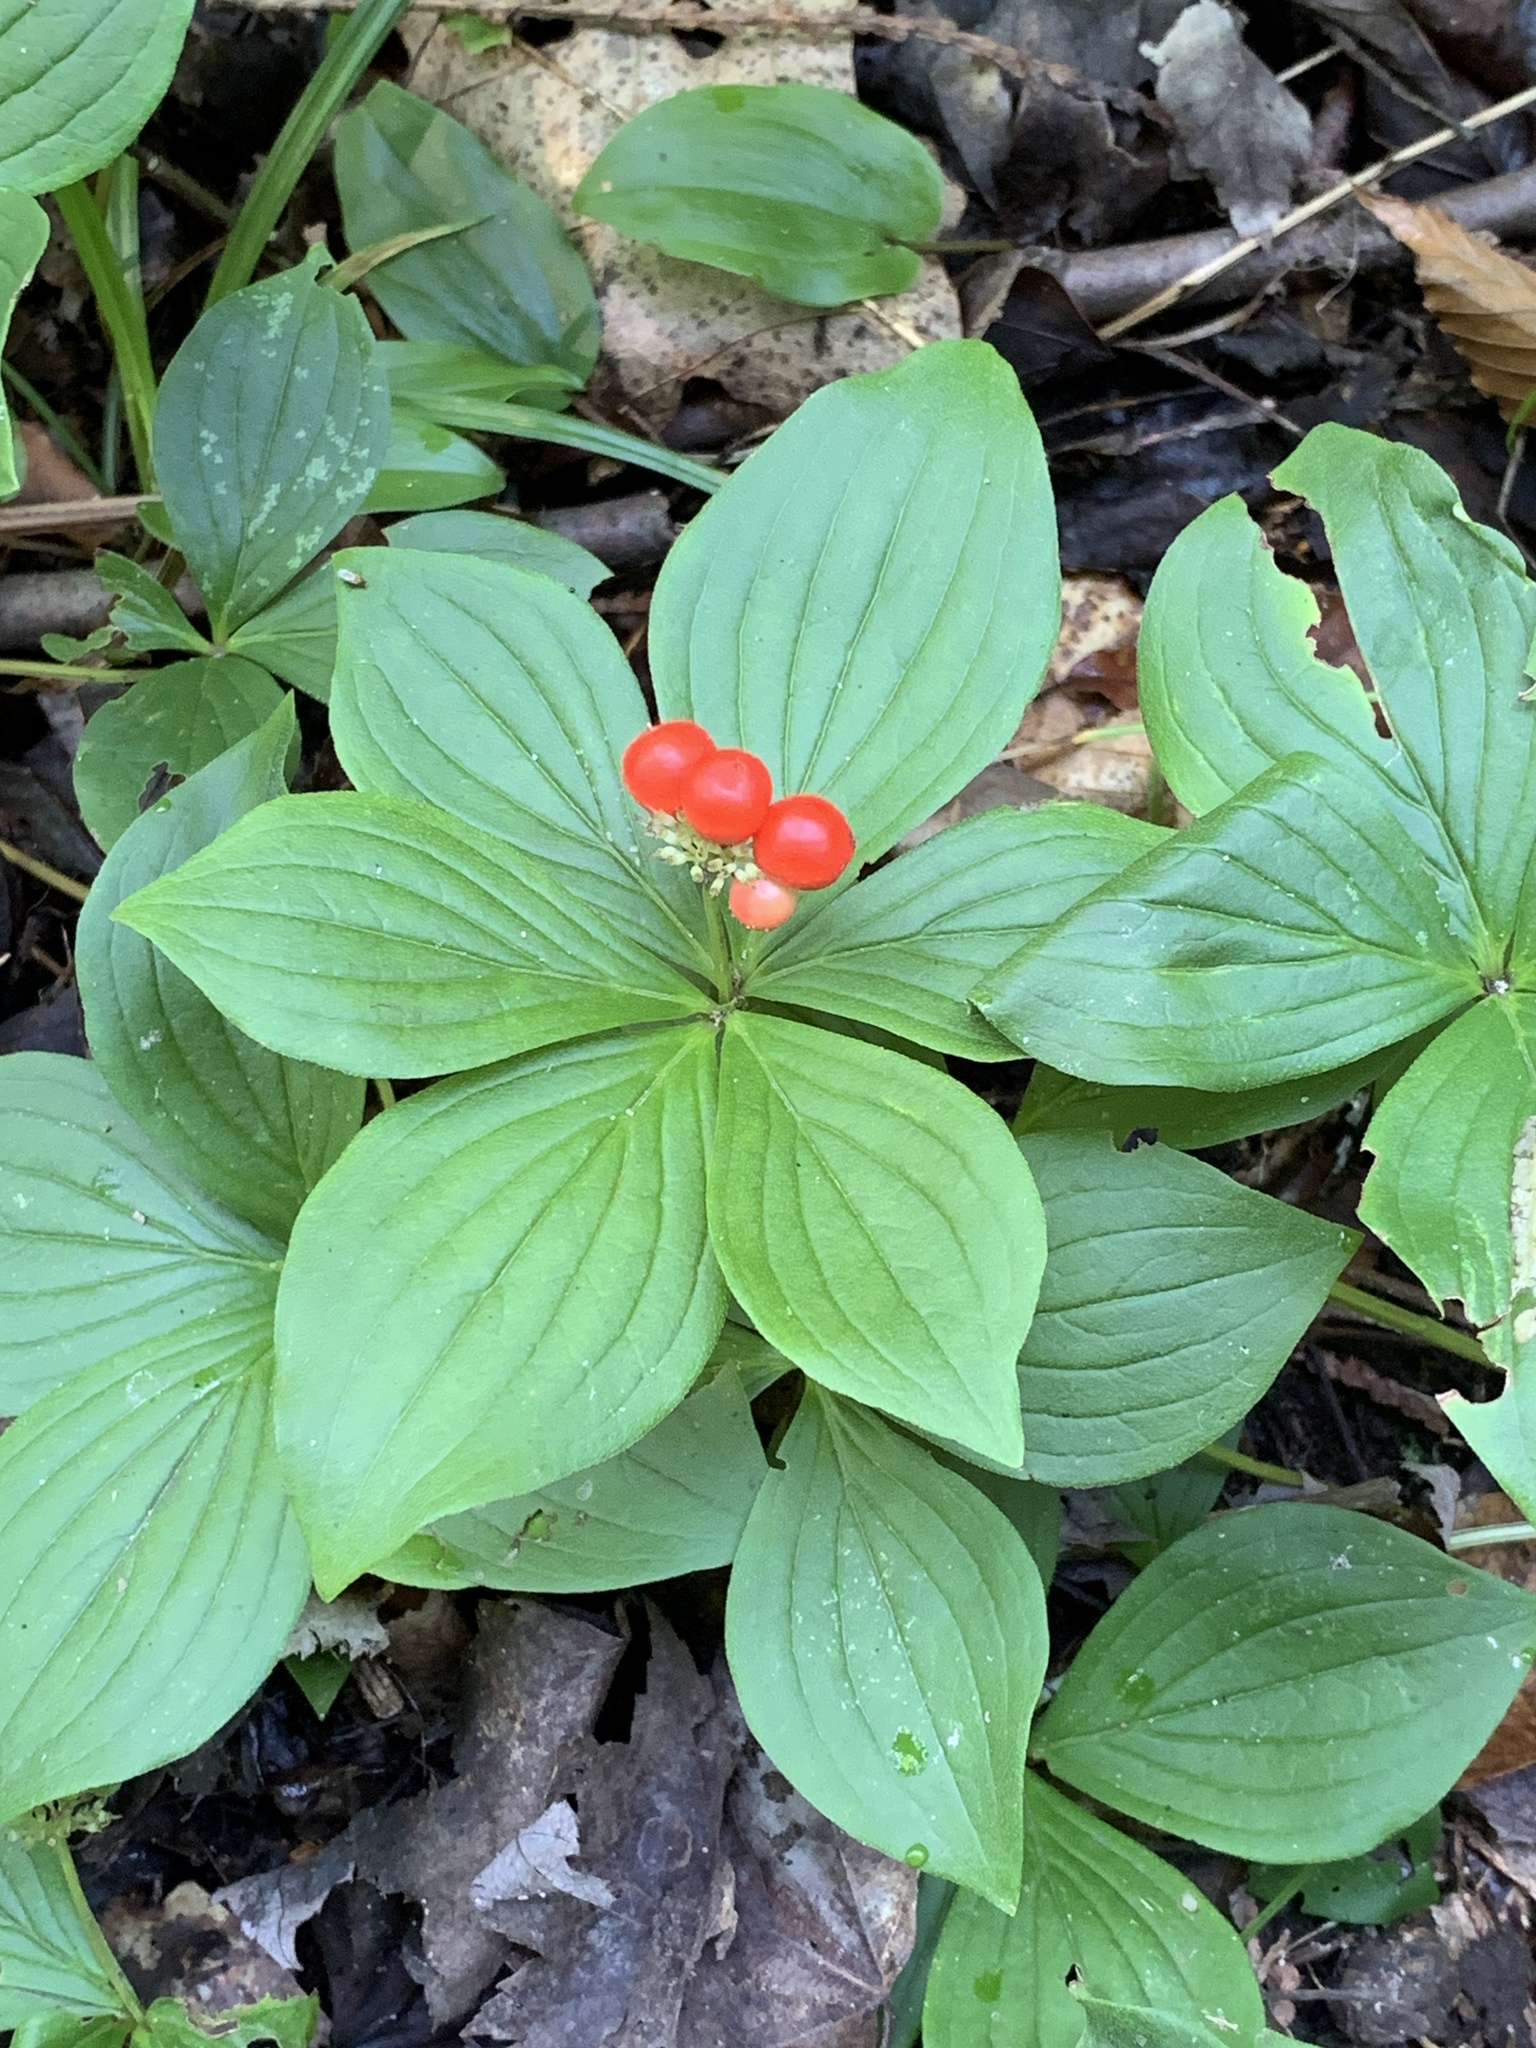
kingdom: Plantae
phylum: Tracheophyta
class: Magnoliopsida
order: Cornales
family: Cornaceae
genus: Cornus
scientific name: Cornus canadensis
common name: Creeping dogwood
